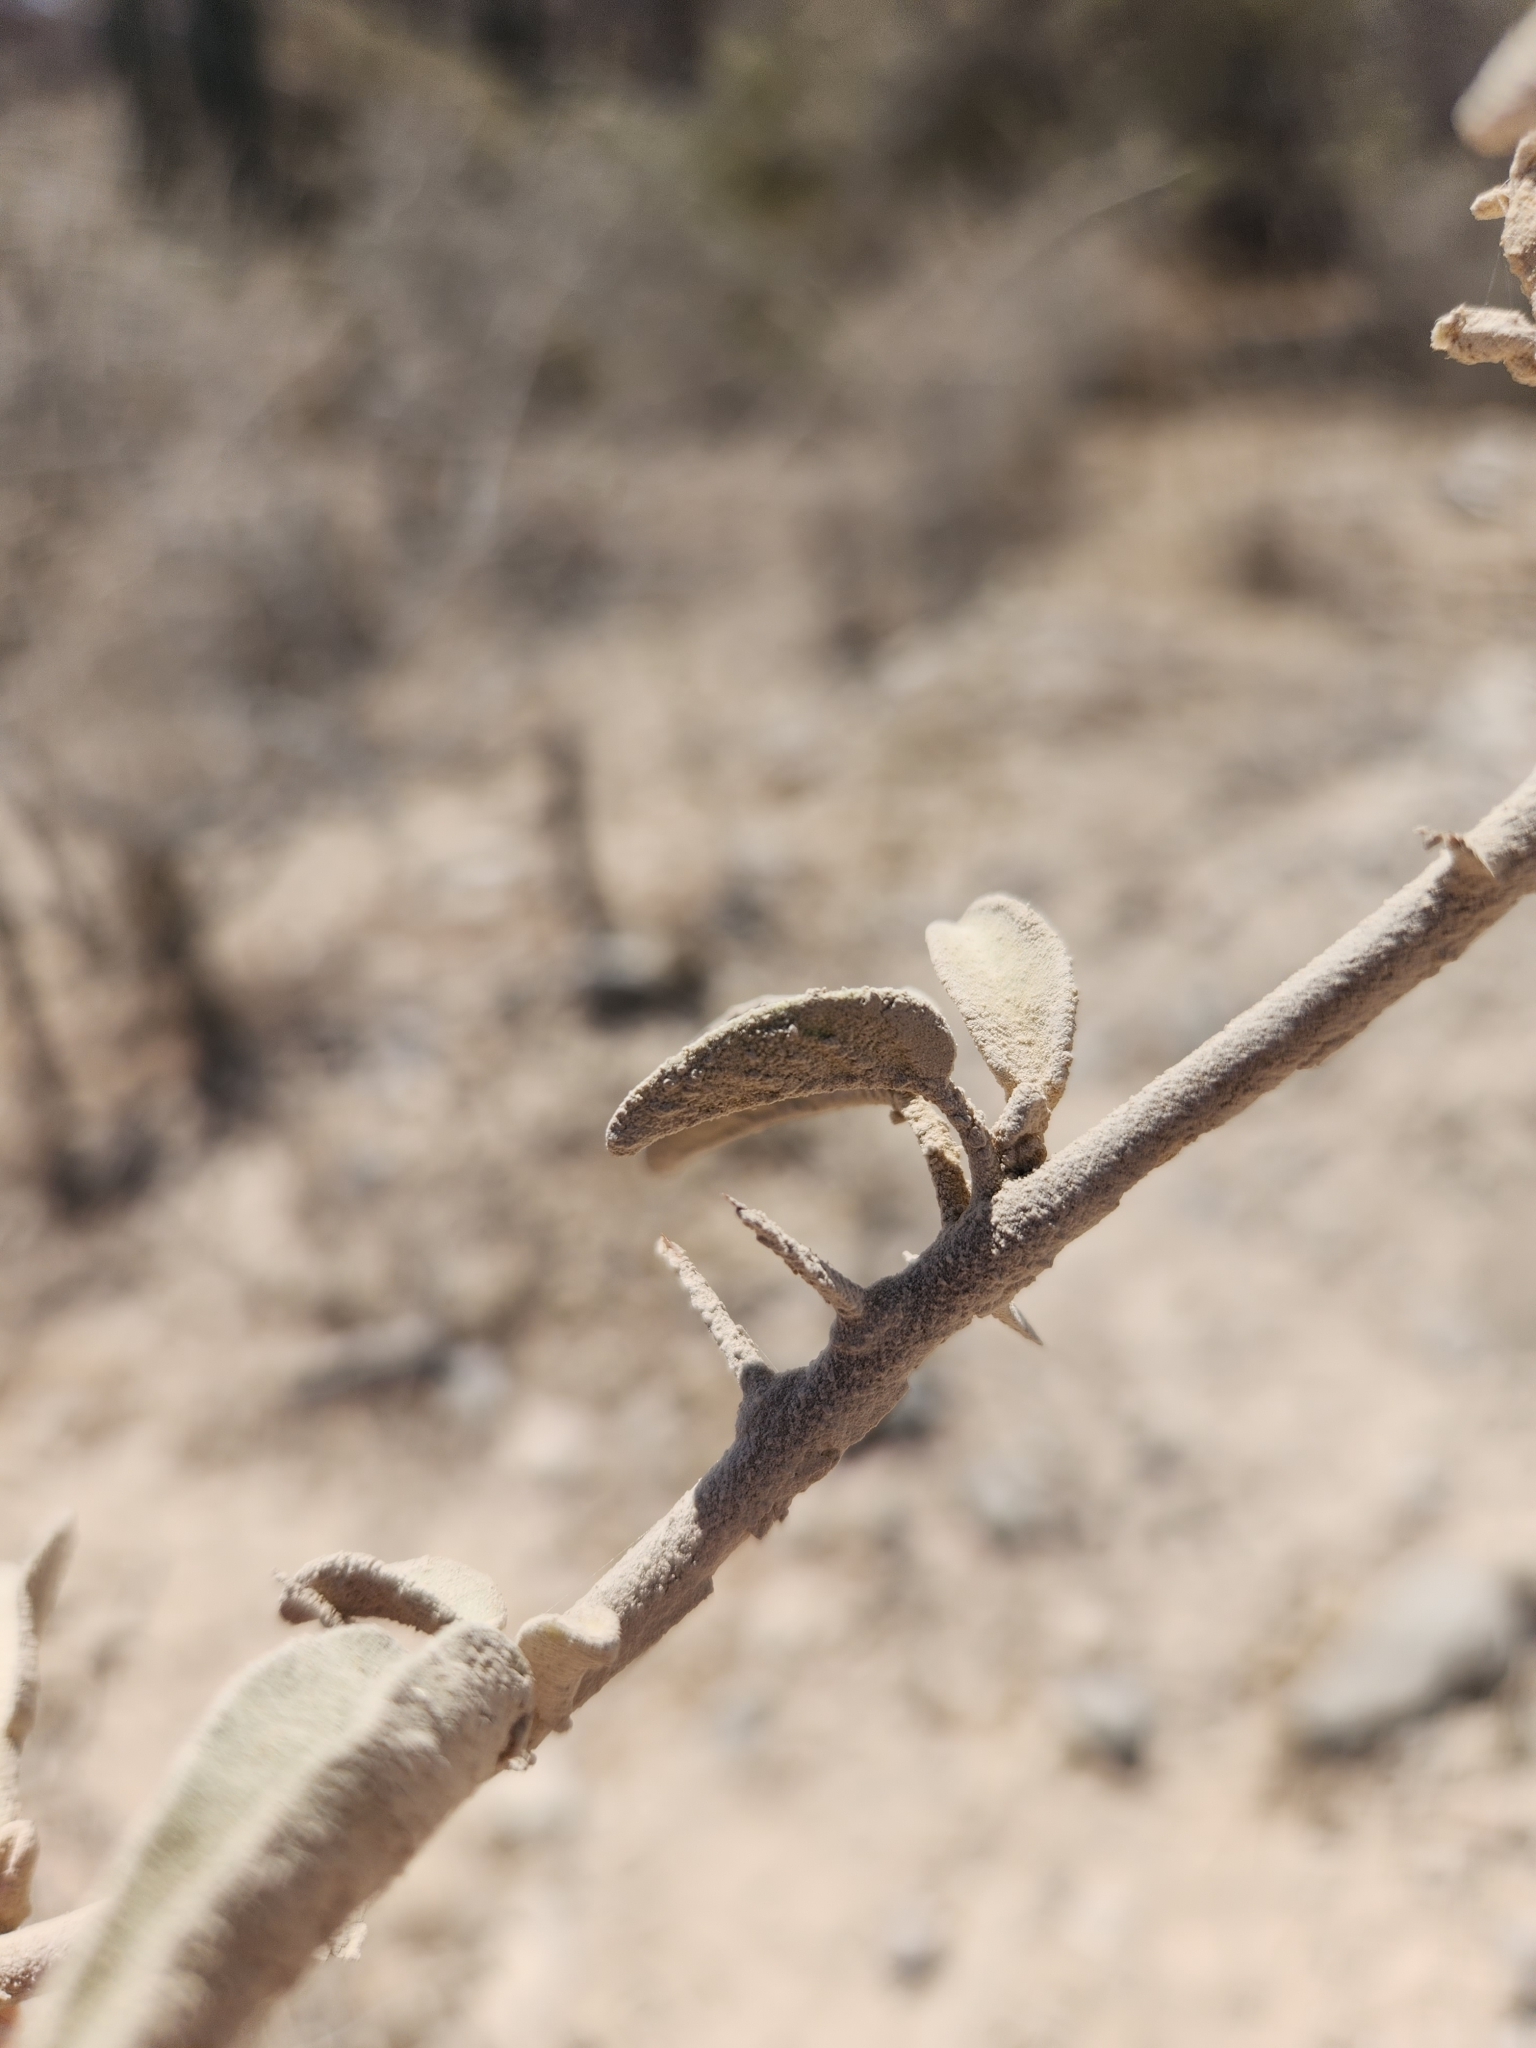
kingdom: Plantae
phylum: Tracheophyta
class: Magnoliopsida
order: Solanales
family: Solanaceae
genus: Solanum
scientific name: Solanum hindsianum
